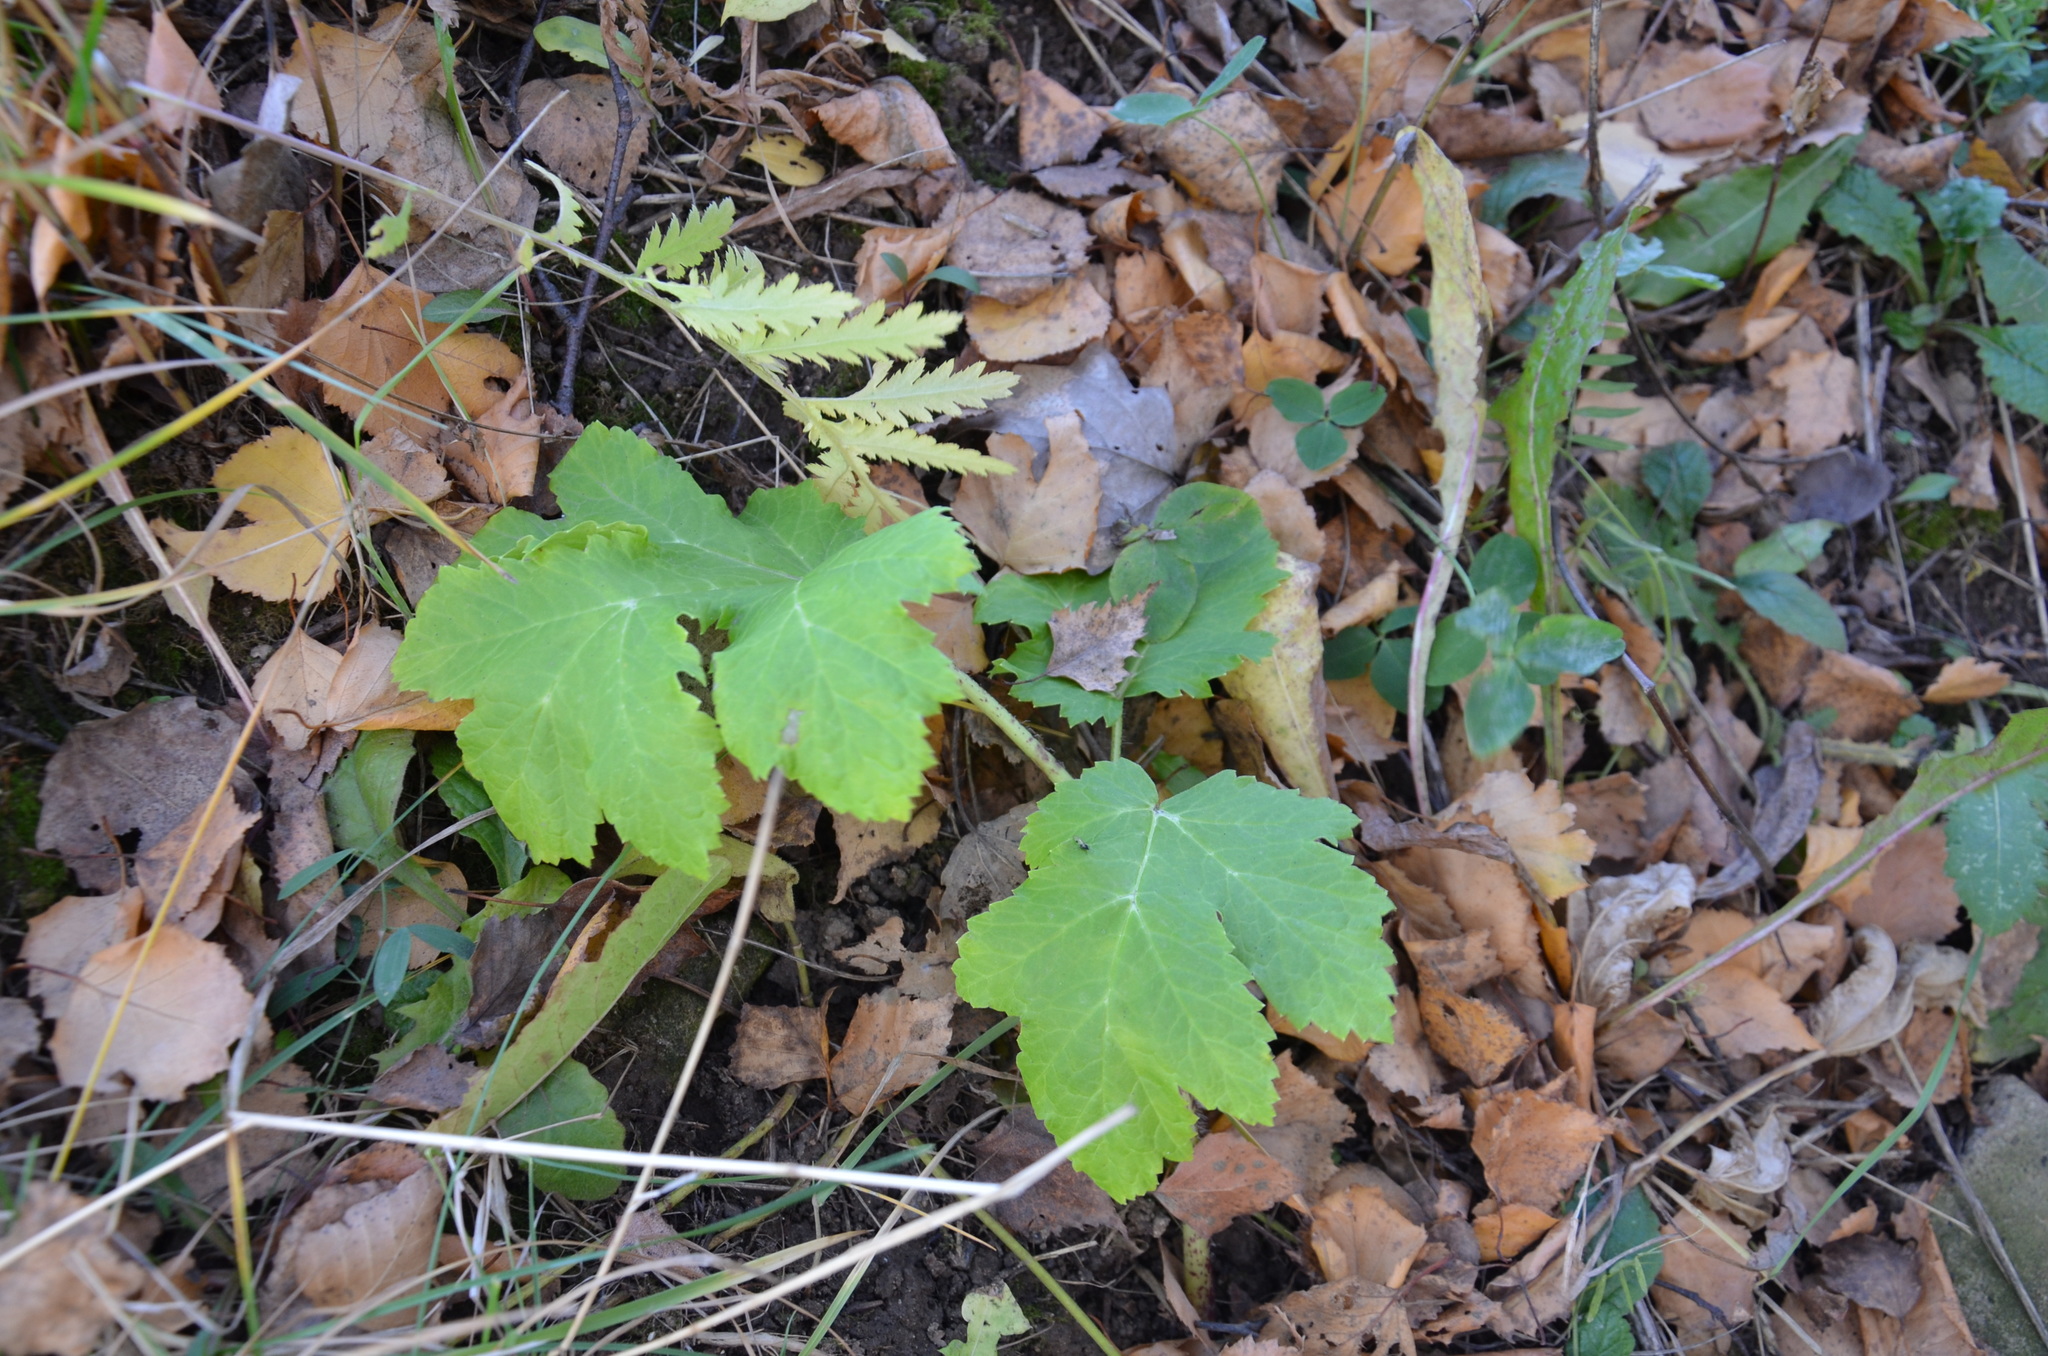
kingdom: Plantae
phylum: Tracheophyta
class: Magnoliopsida
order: Apiales
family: Apiaceae
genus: Heracleum
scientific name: Heracleum sosnowskyi
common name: Sosnowsky's hogweed
